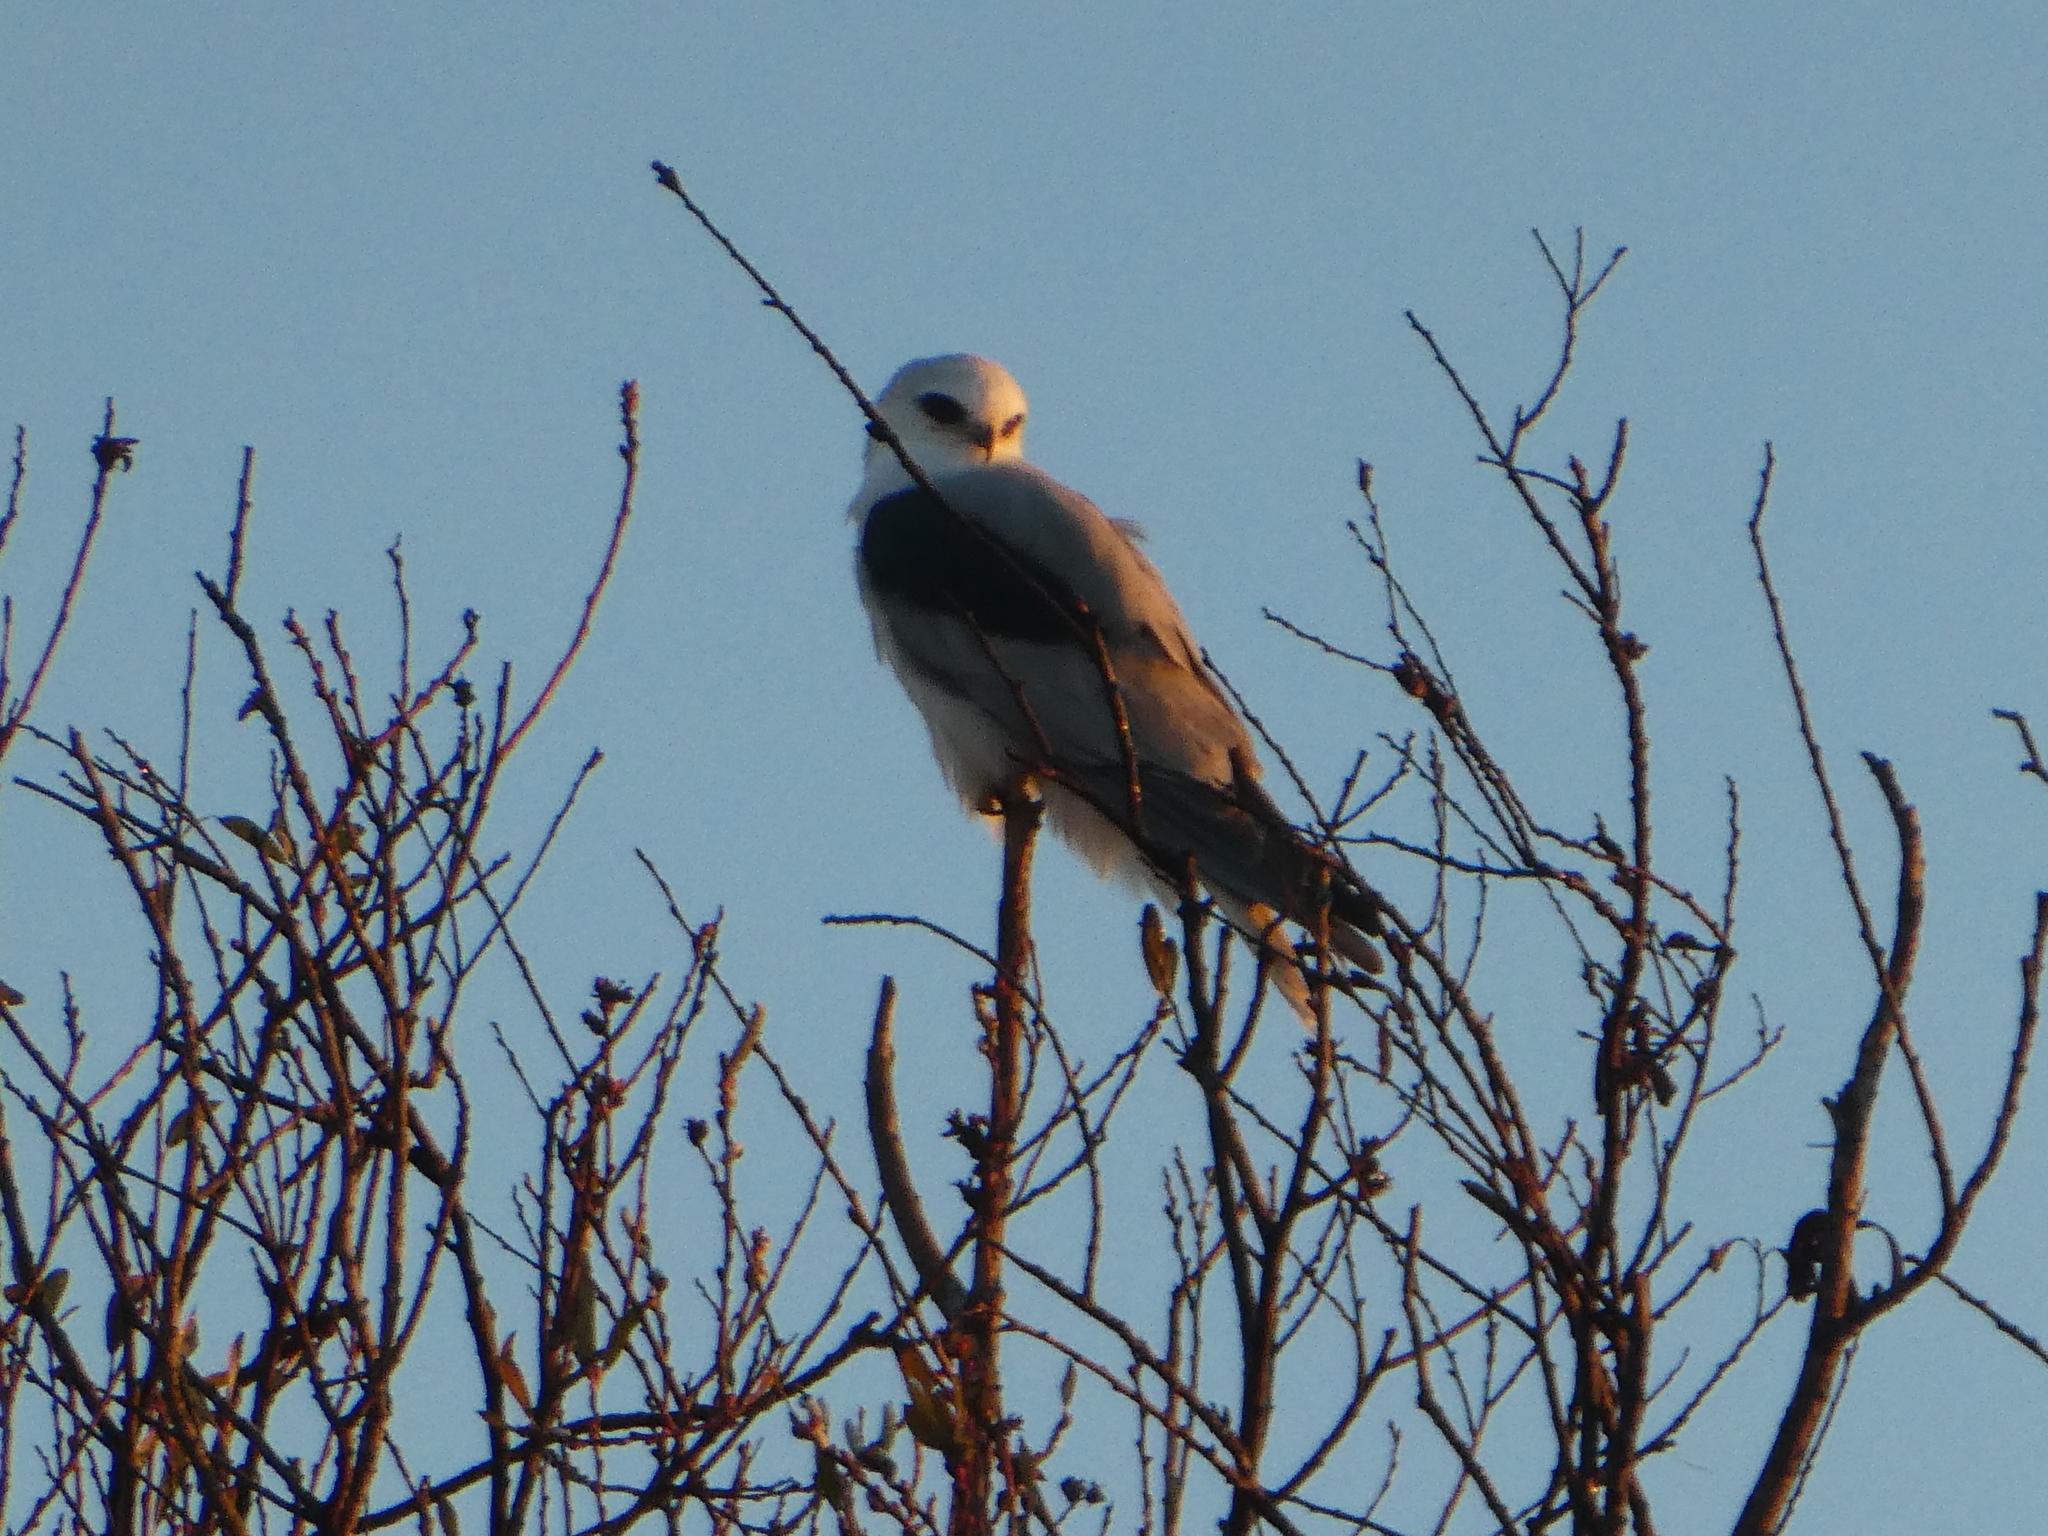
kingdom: Animalia
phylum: Chordata
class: Aves
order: Accipitriformes
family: Accipitridae
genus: Elanus
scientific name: Elanus leucurus
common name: White-tailed kite
